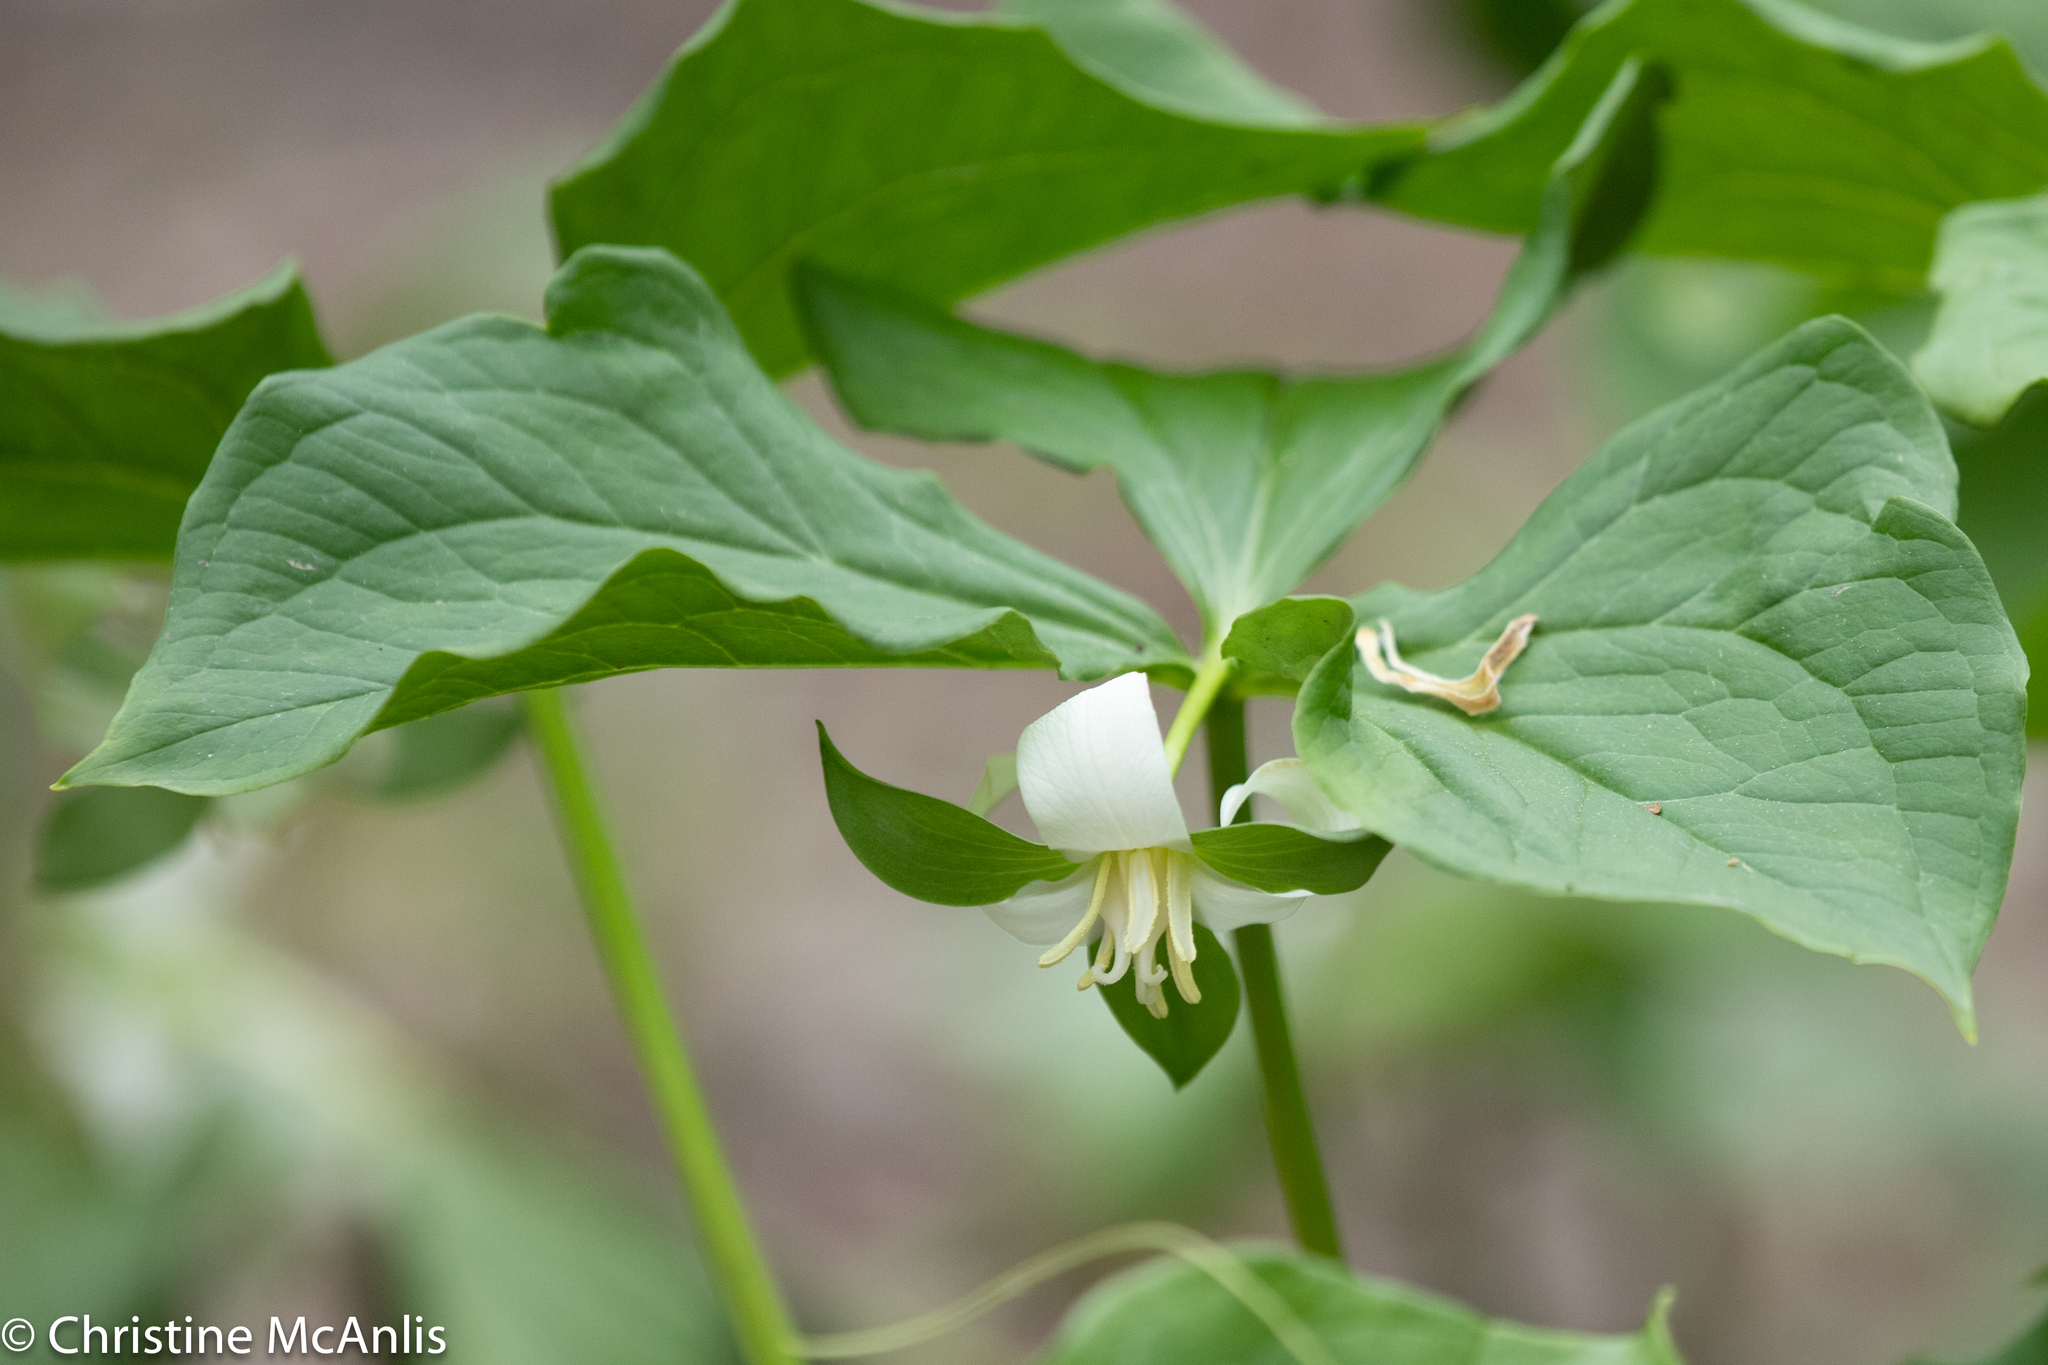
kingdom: Plantae
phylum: Tracheophyta
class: Liliopsida
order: Liliales
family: Melanthiaceae
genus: Trillium
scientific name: Trillium flexipes
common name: Drooping trillium
